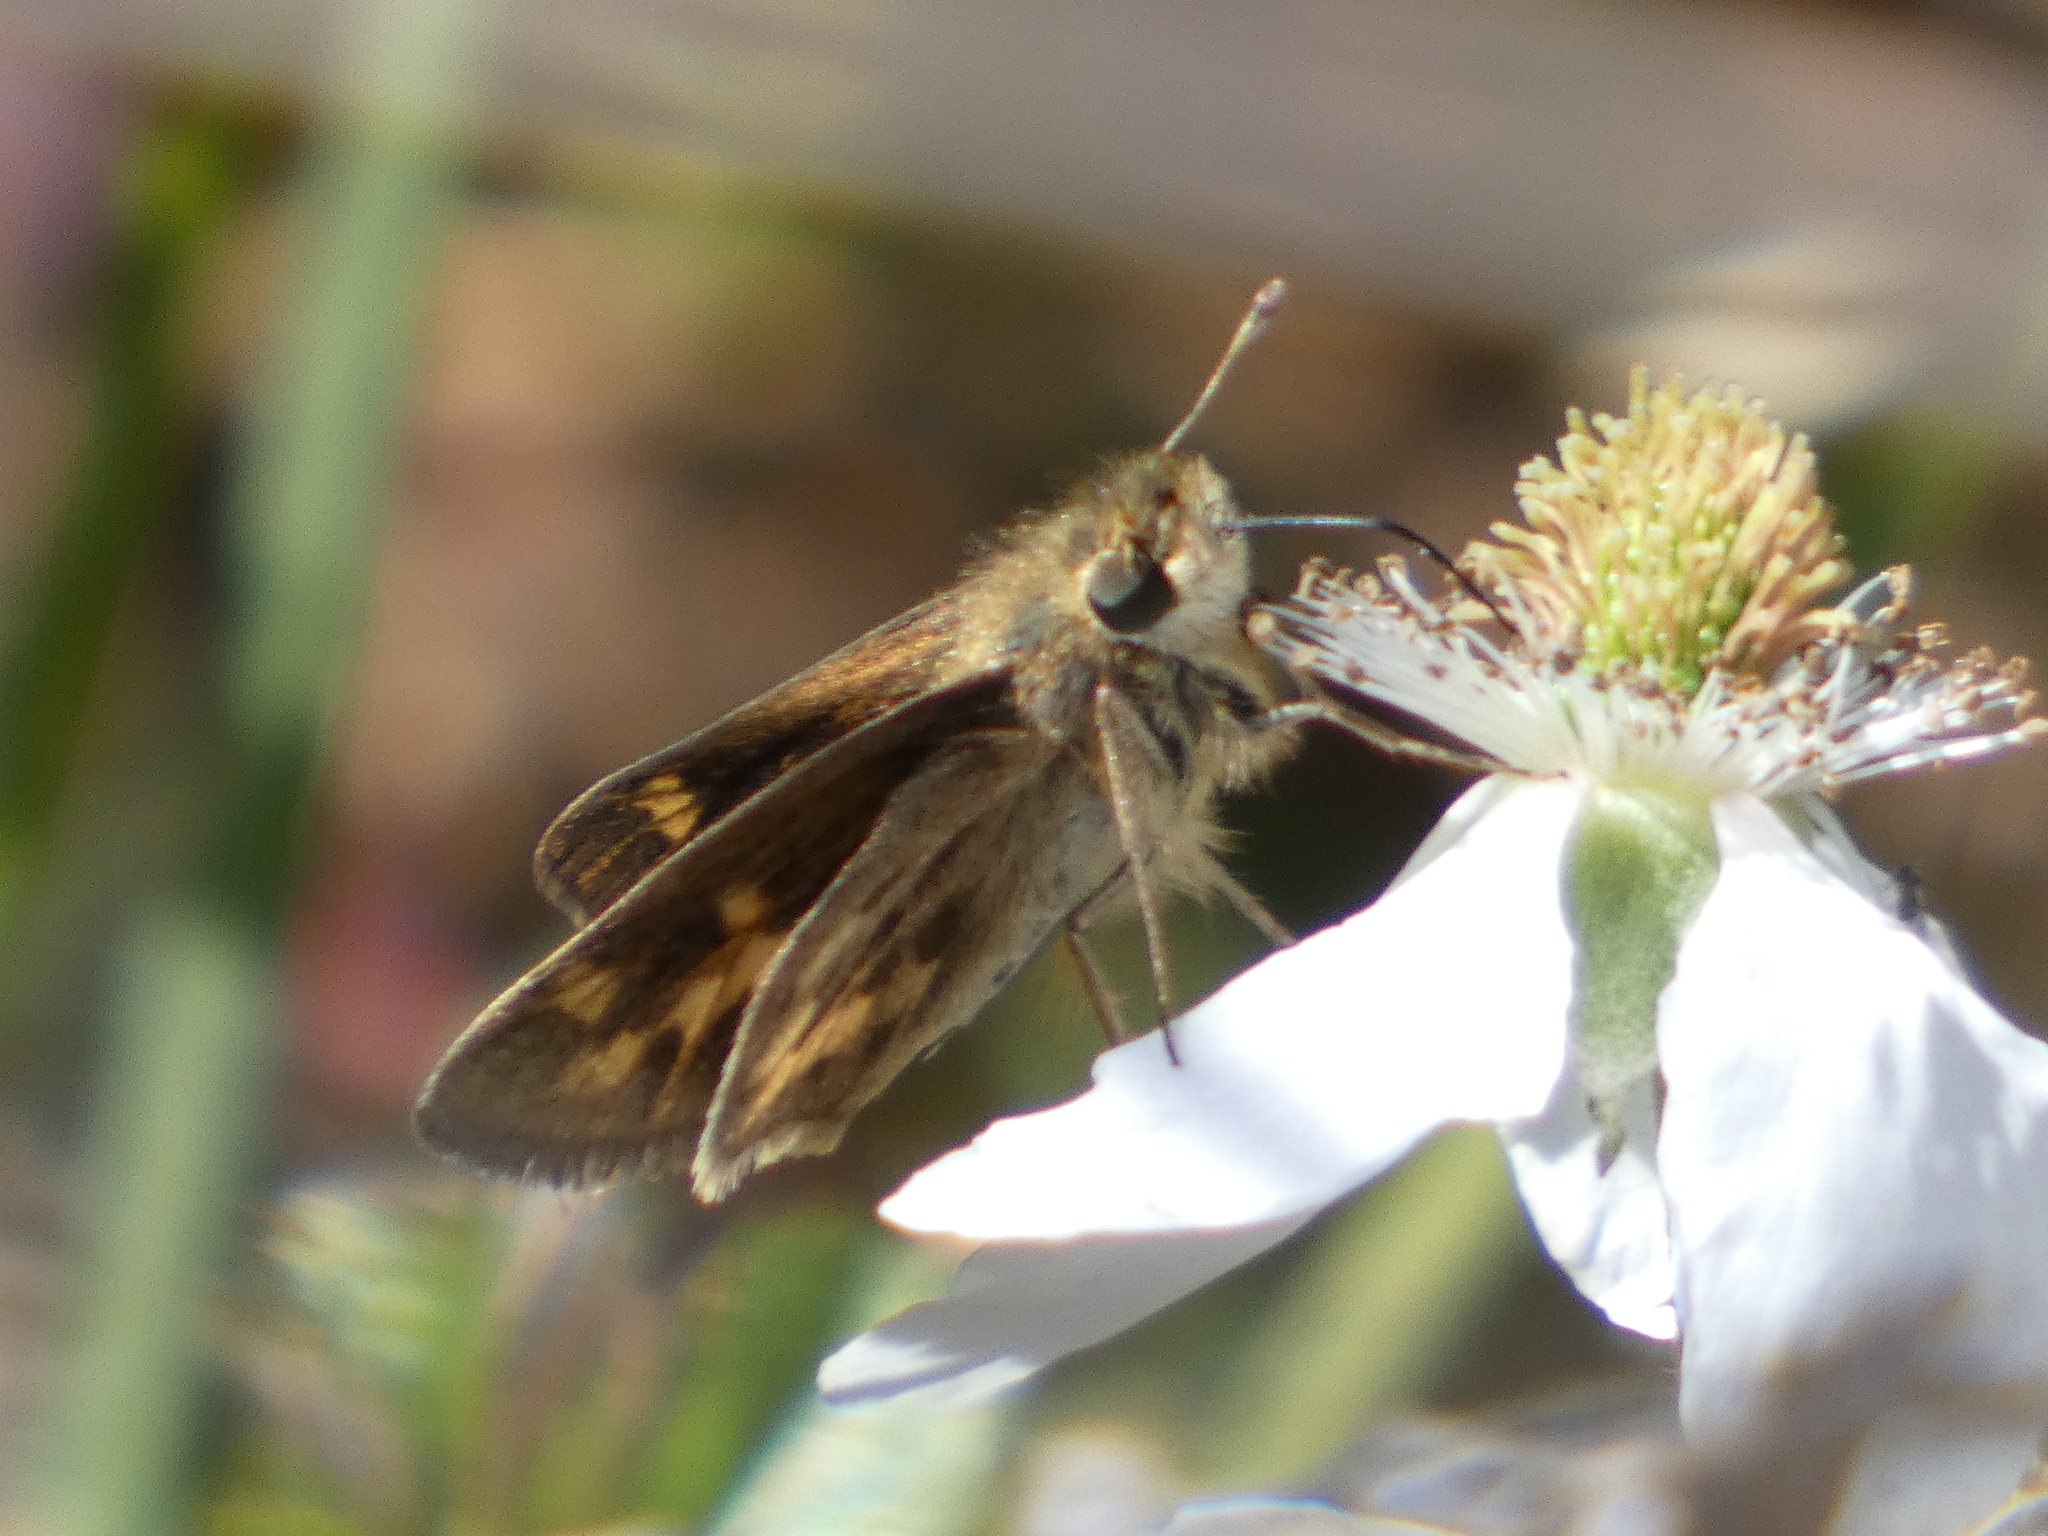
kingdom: Animalia
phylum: Arthropoda
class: Insecta
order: Lepidoptera
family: Hesperiidae
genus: Hylephila
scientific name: Hylephila phyleus
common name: Fiery skipper
